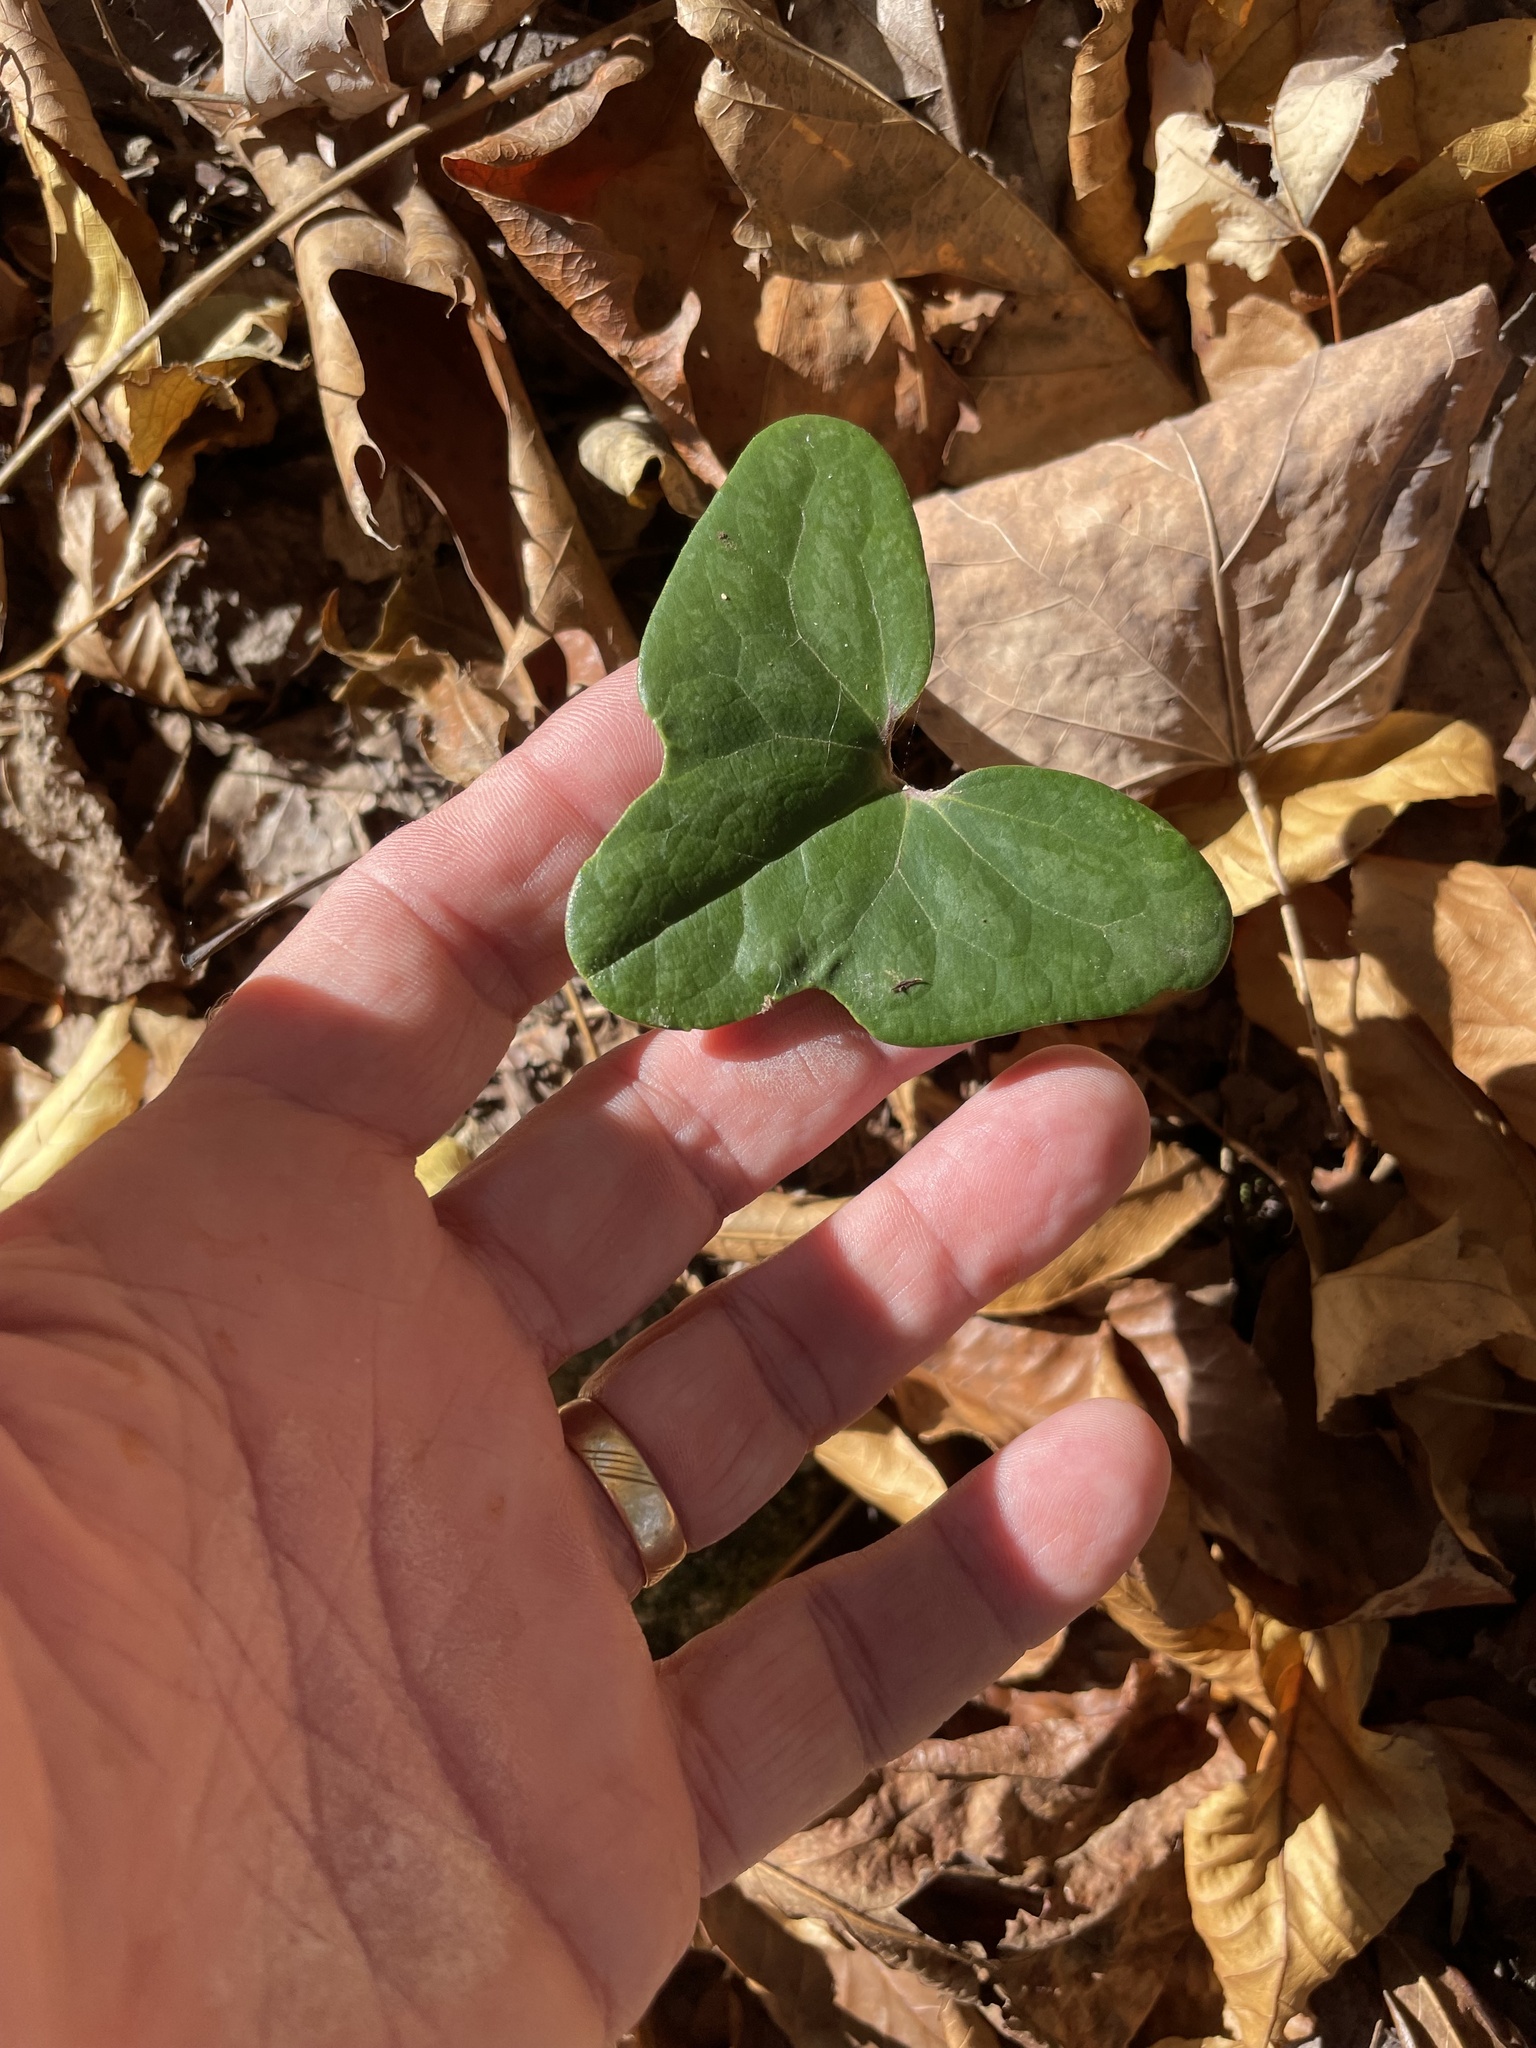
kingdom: Plantae
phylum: Tracheophyta
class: Magnoliopsida
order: Piperales
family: Aristolochiaceae
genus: Hexastylis
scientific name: Hexastylis arifolia
